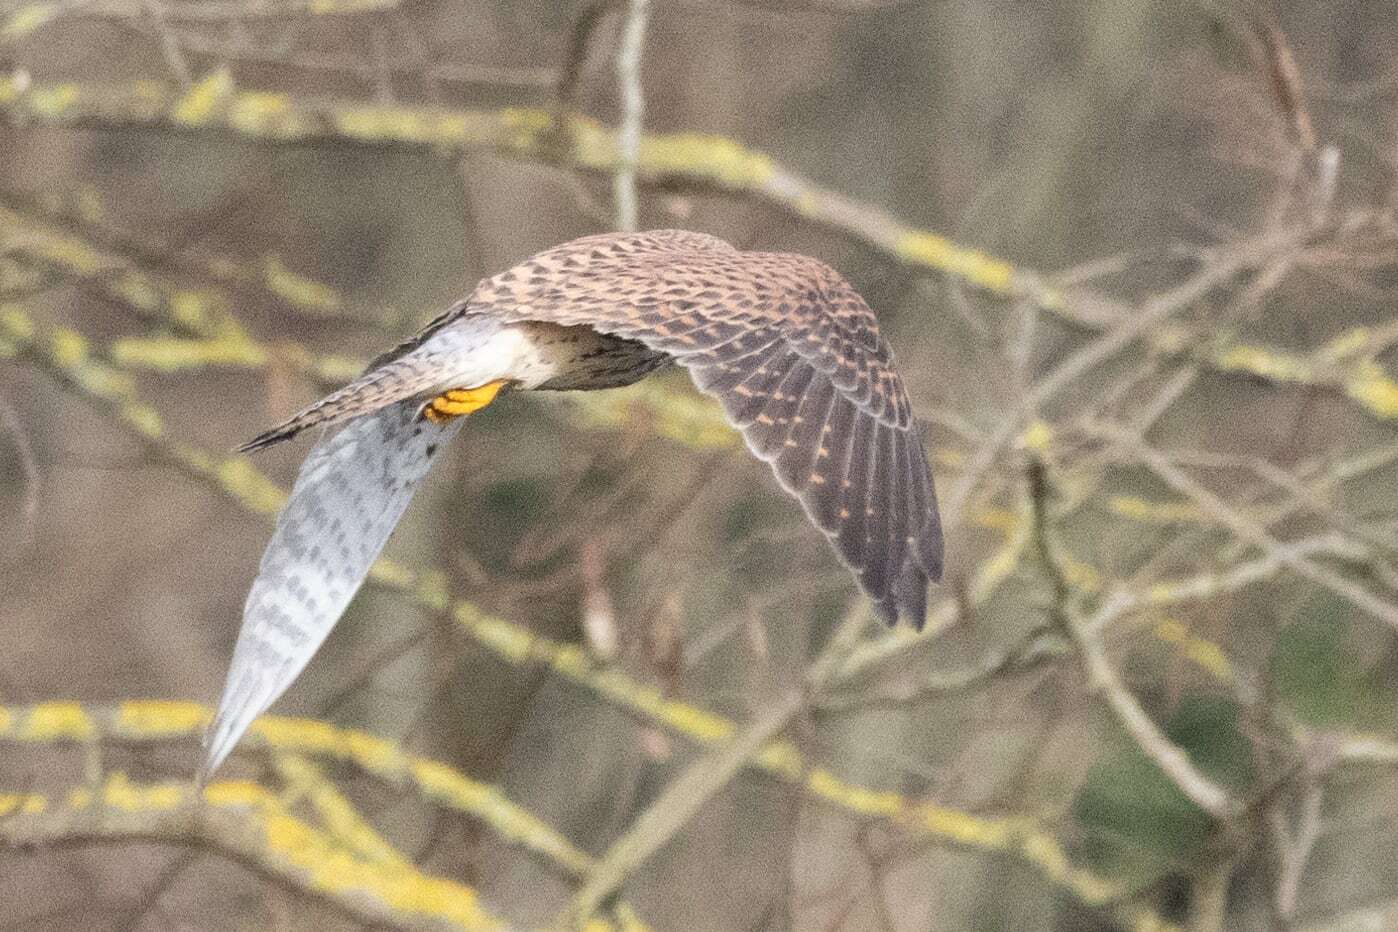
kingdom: Animalia
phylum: Chordata
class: Aves
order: Falconiformes
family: Falconidae
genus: Falco
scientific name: Falco tinnunculus
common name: Common kestrel
